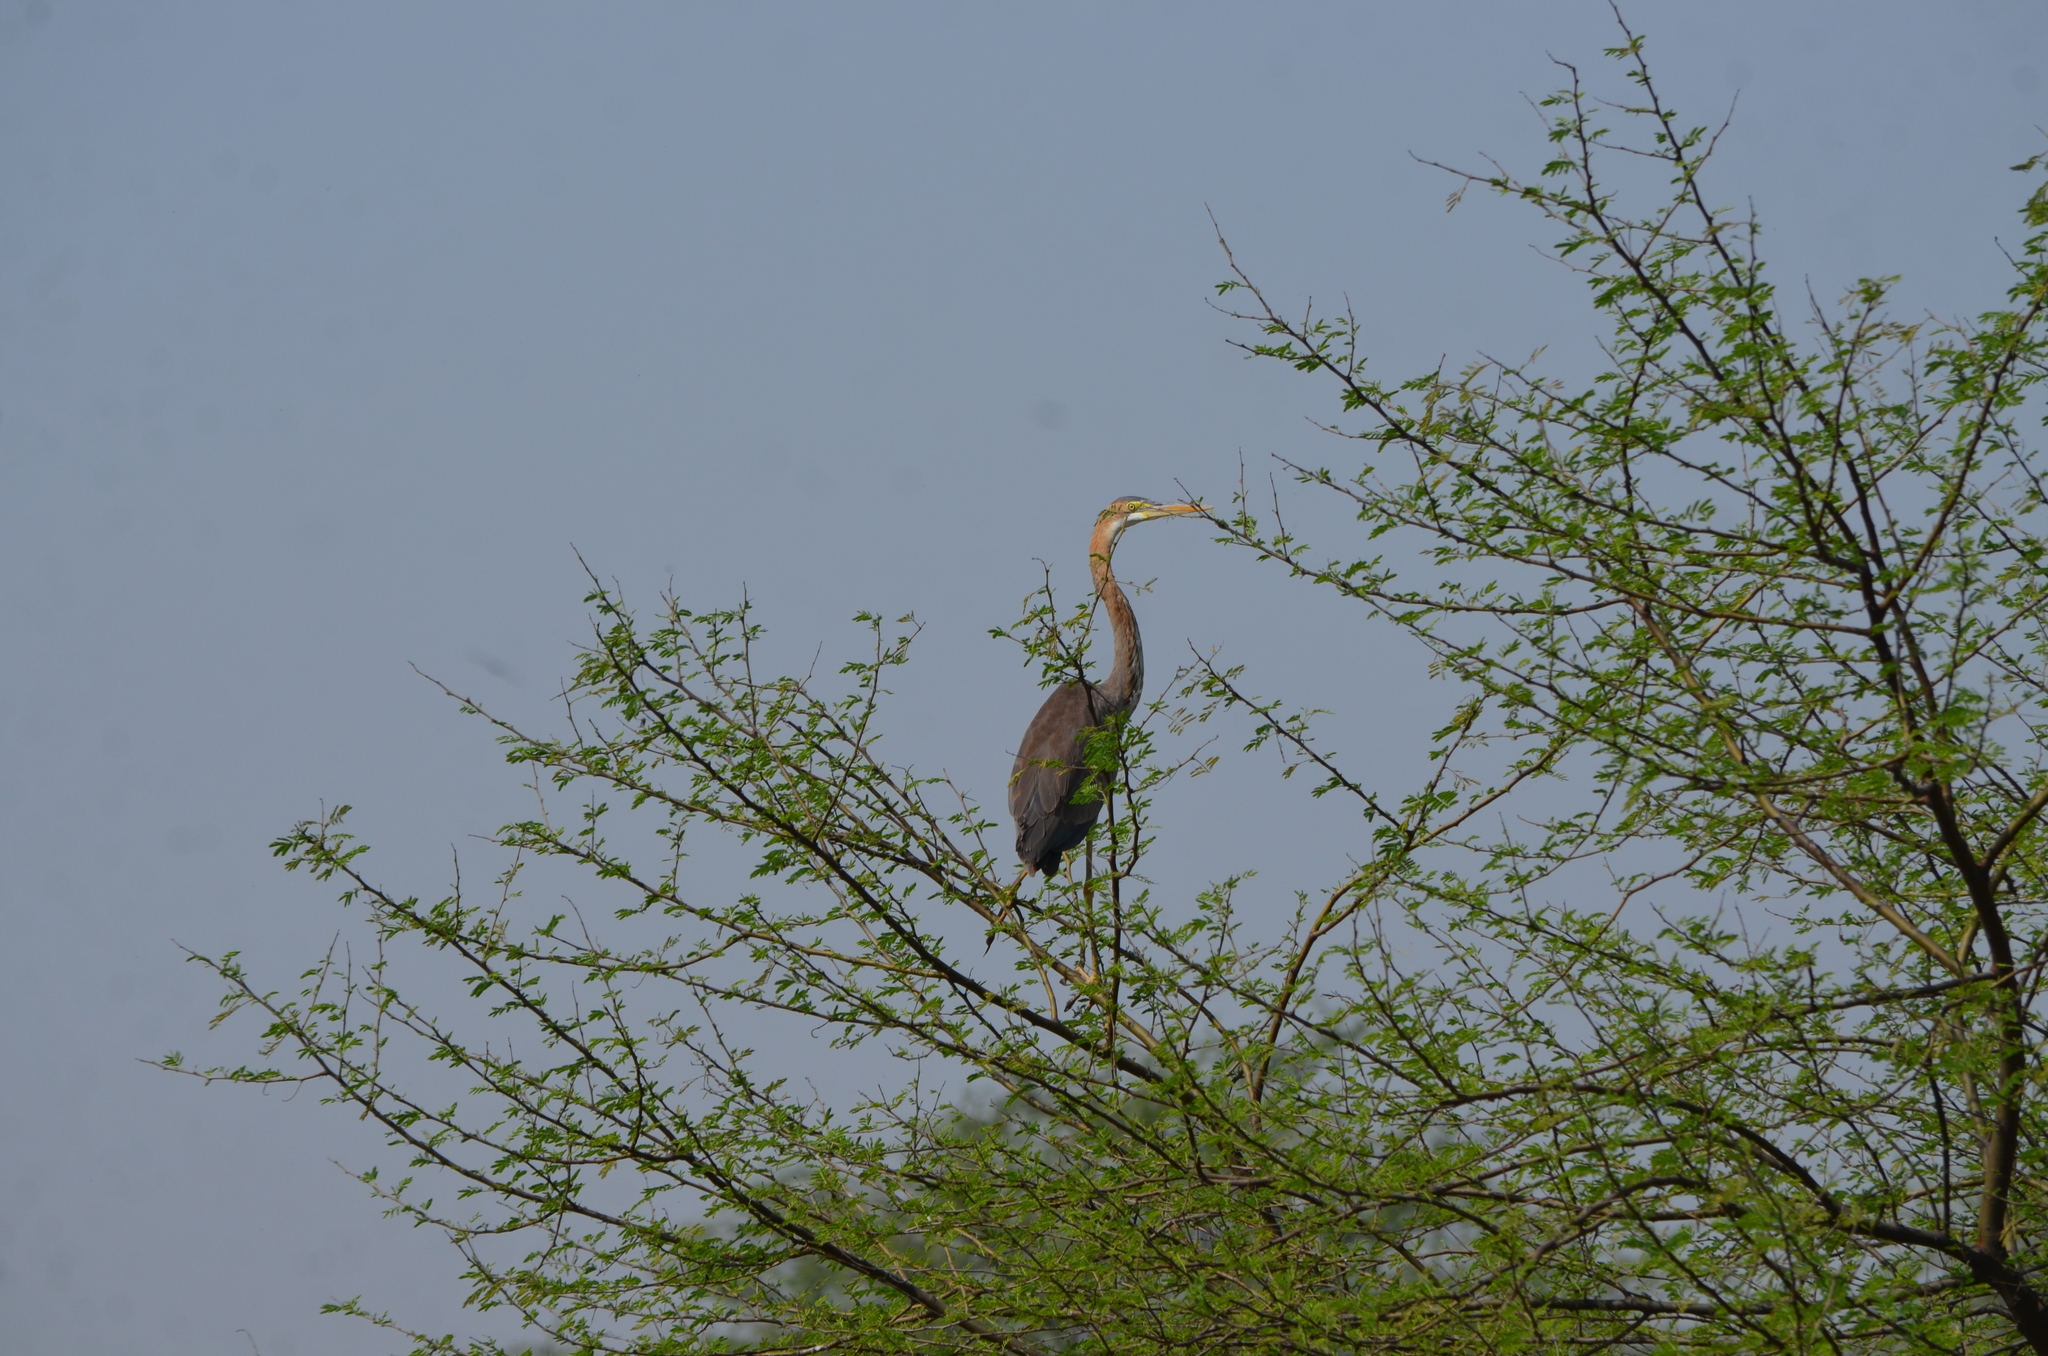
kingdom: Animalia
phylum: Chordata
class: Aves
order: Pelecaniformes
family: Ardeidae
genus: Ardea
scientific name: Ardea purpurea
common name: Purple heron
